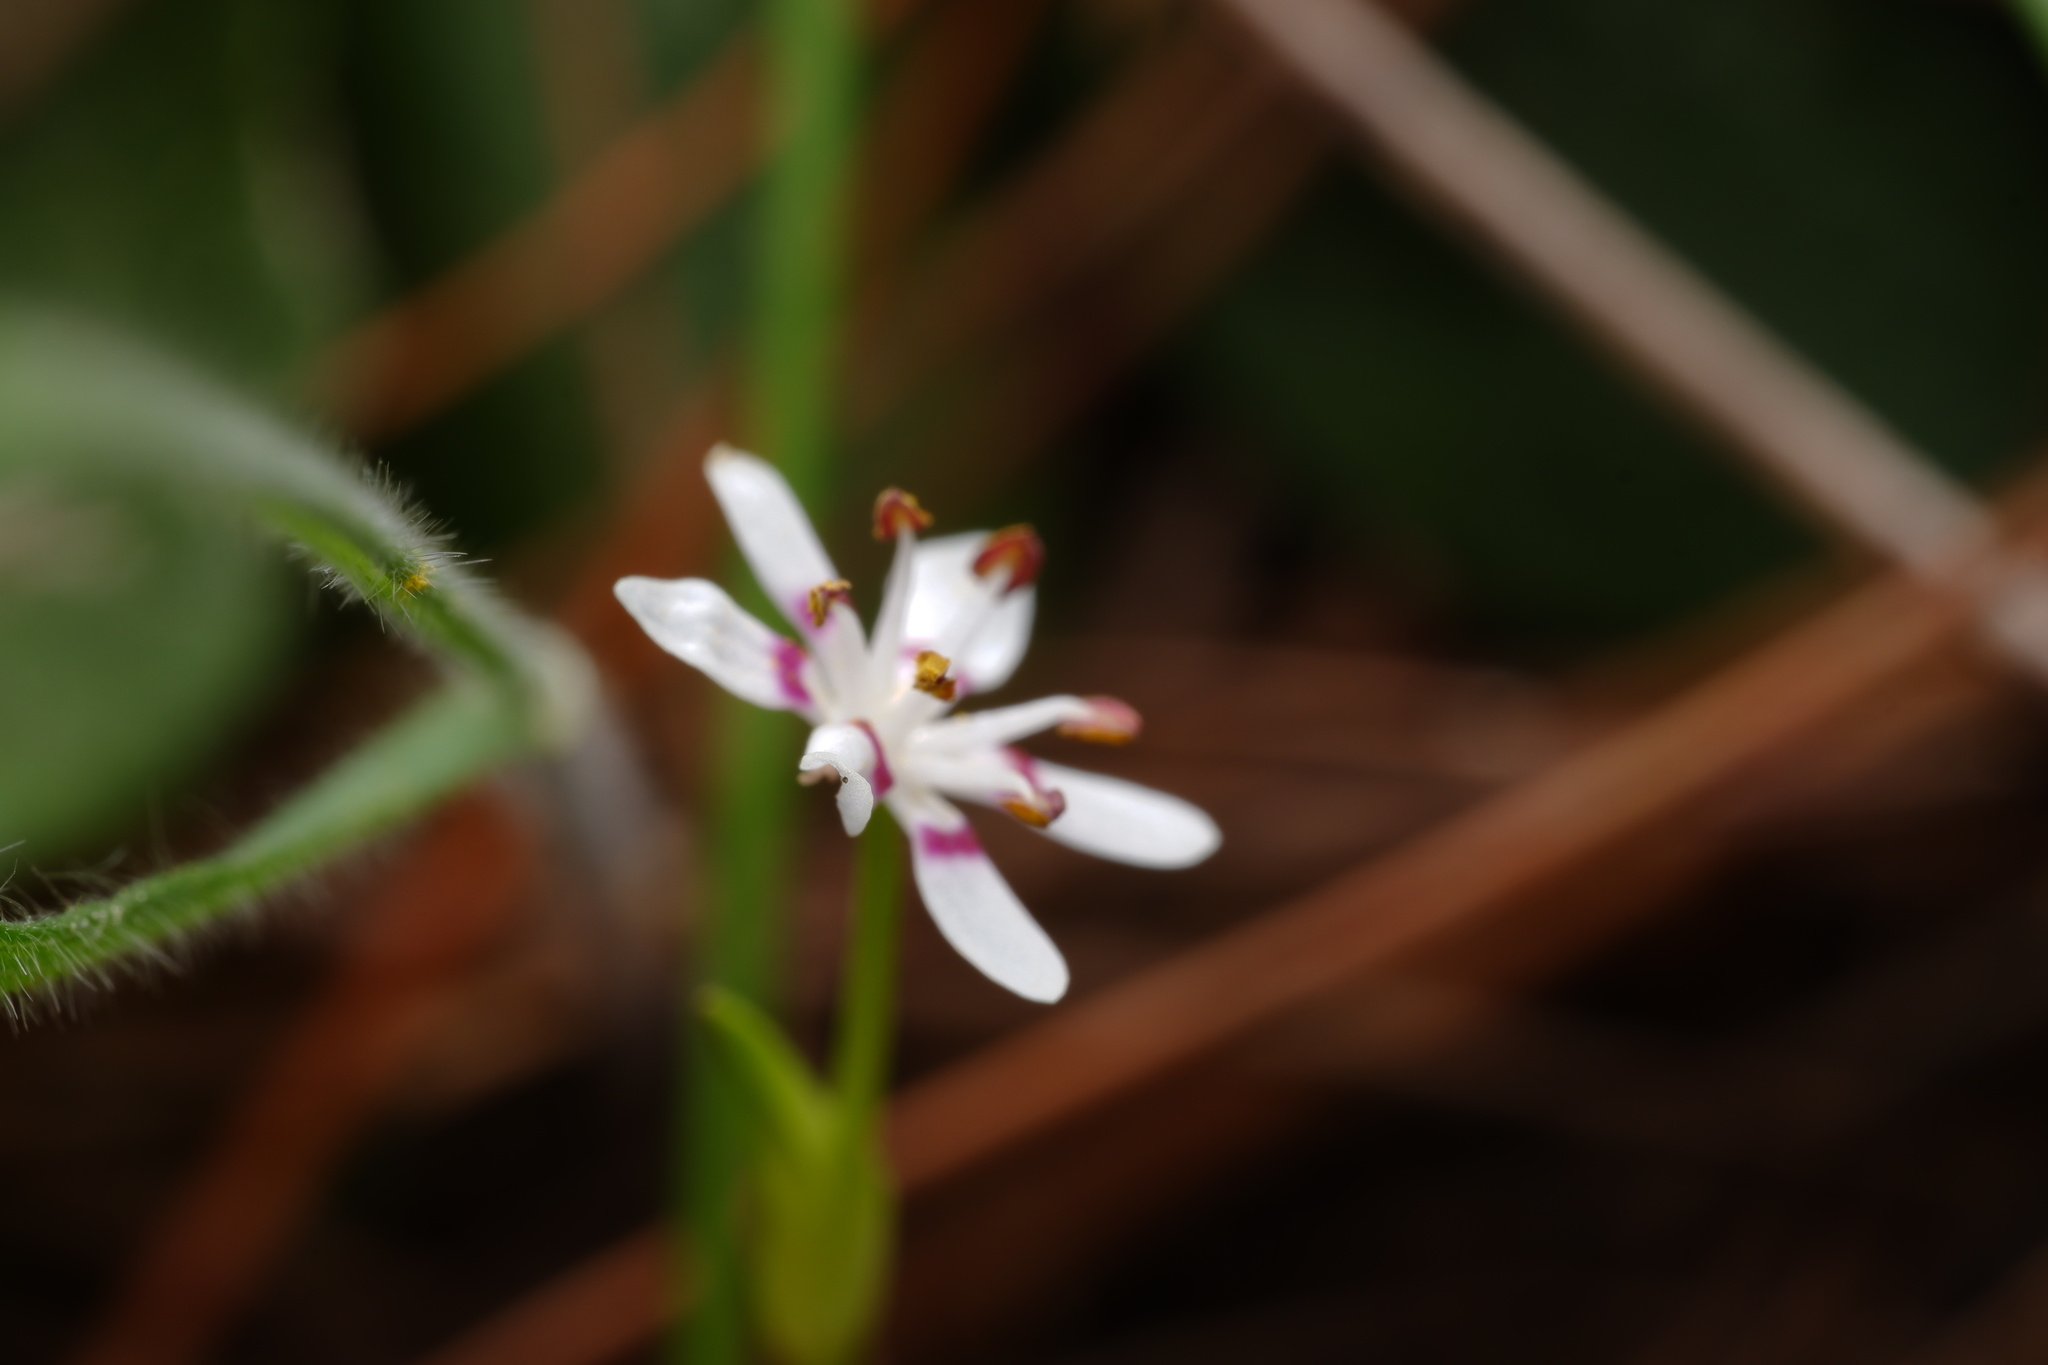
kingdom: Plantae
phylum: Tracheophyta
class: Liliopsida
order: Liliales
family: Colchicaceae
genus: Wurmbea
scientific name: Wurmbea dioica
